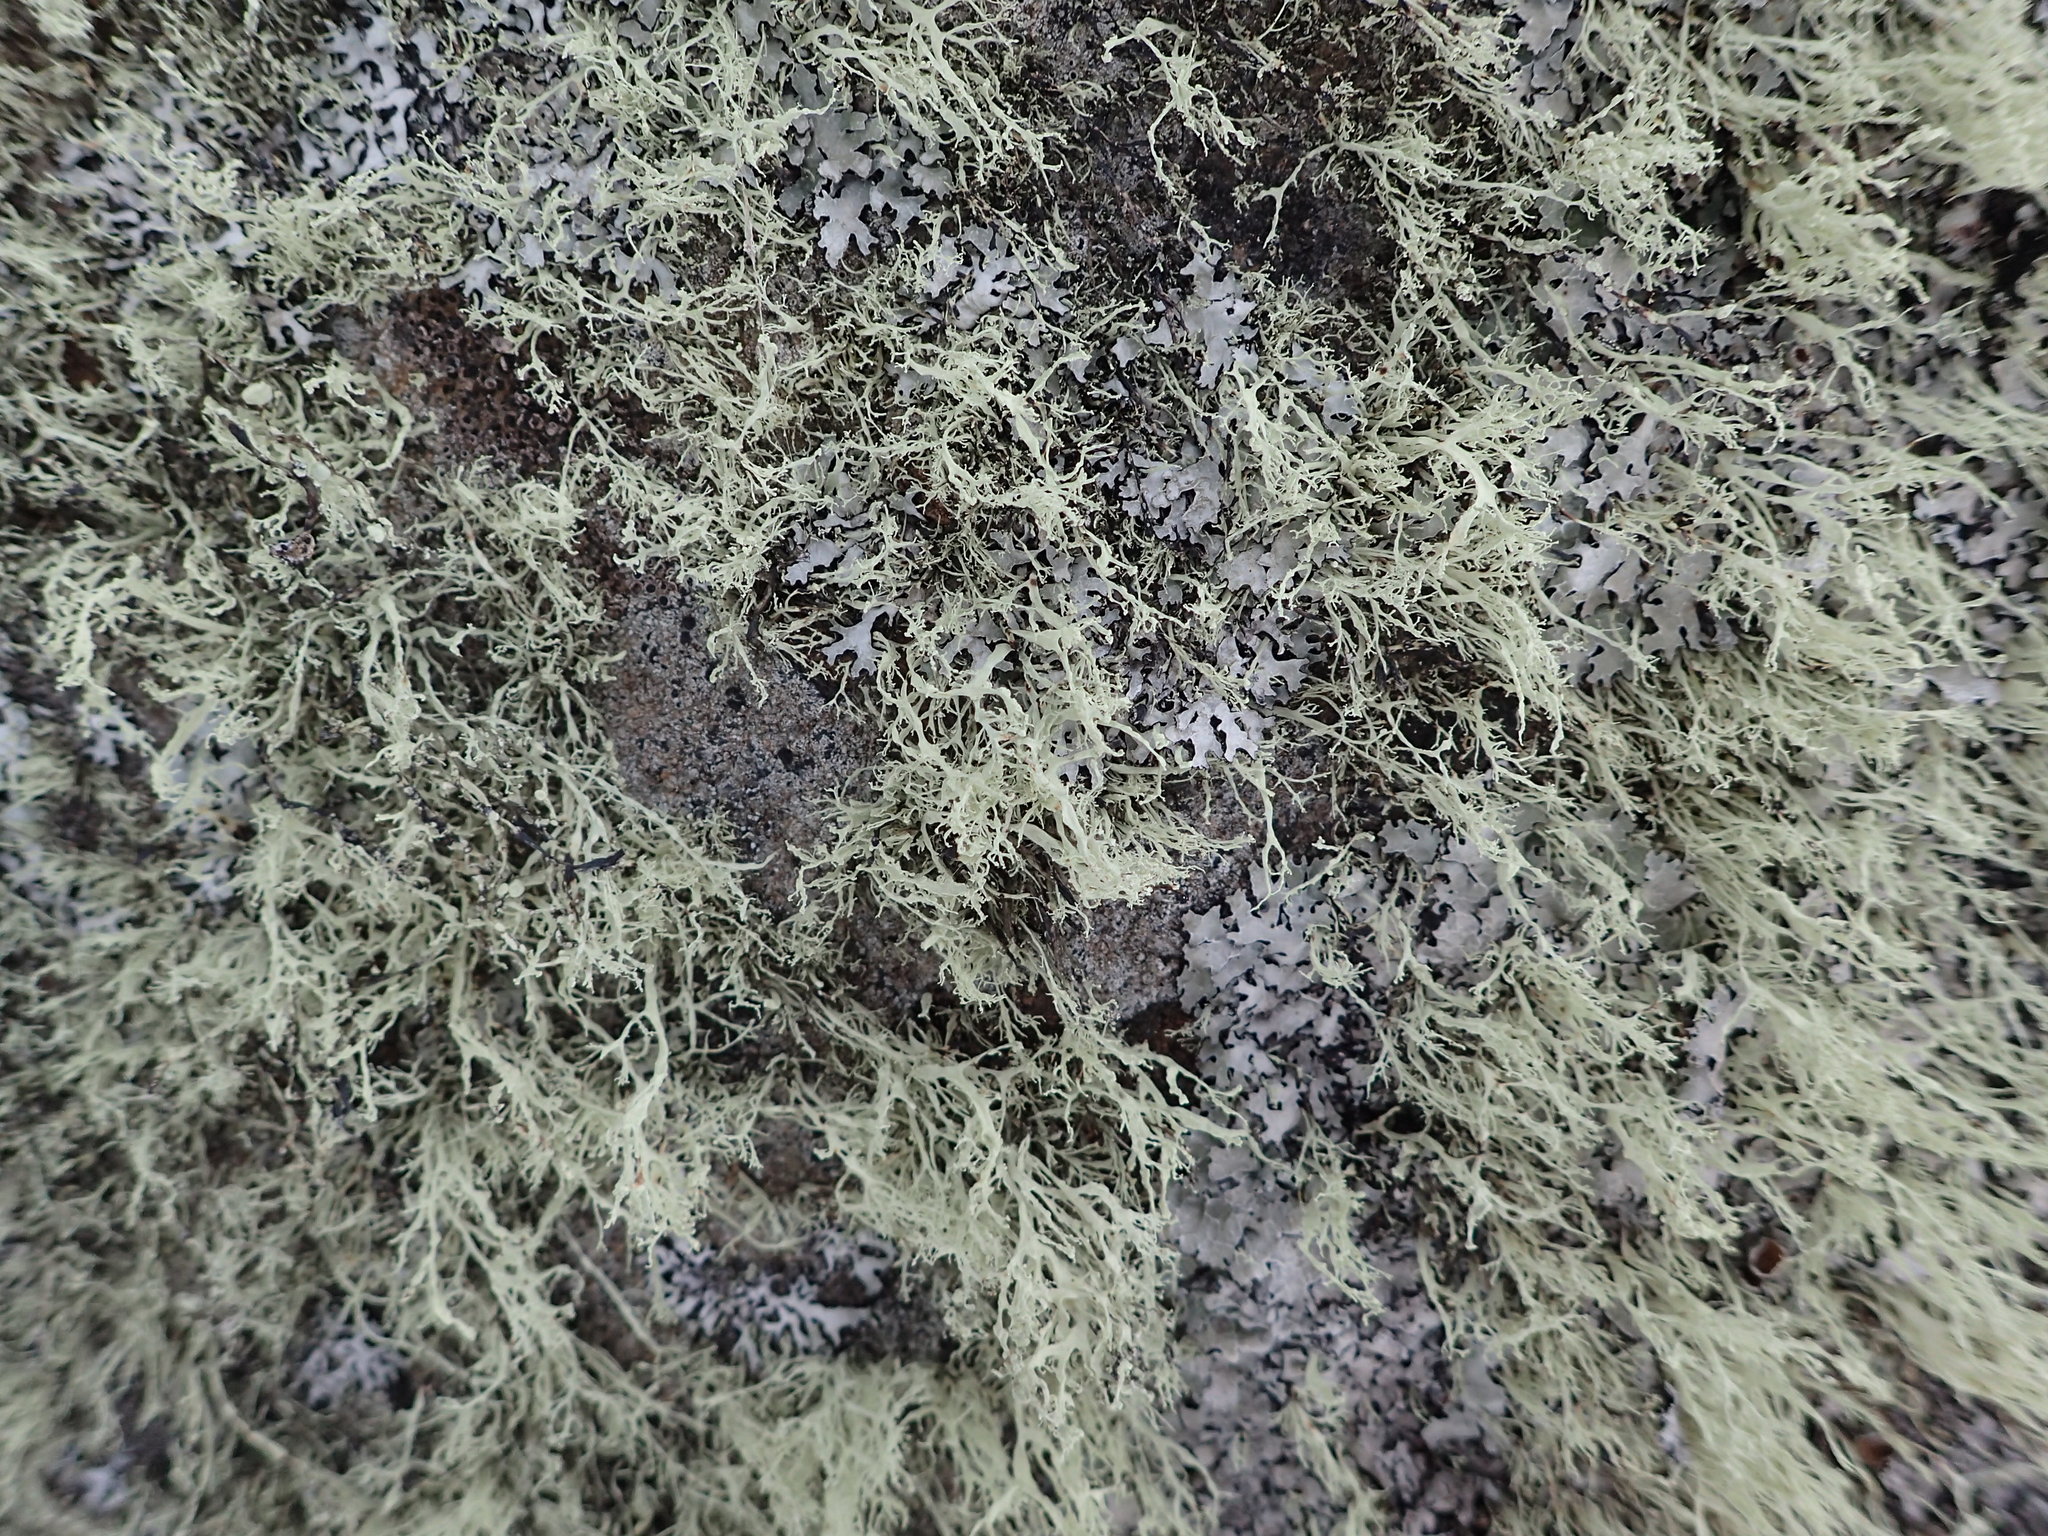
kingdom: Fungi
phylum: Ascomycota
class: Lecanoromycetes
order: Lecanorales
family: Ramalinaceae
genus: Ramalina
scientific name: Ramalina intermedia
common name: Rock bushy lichen
